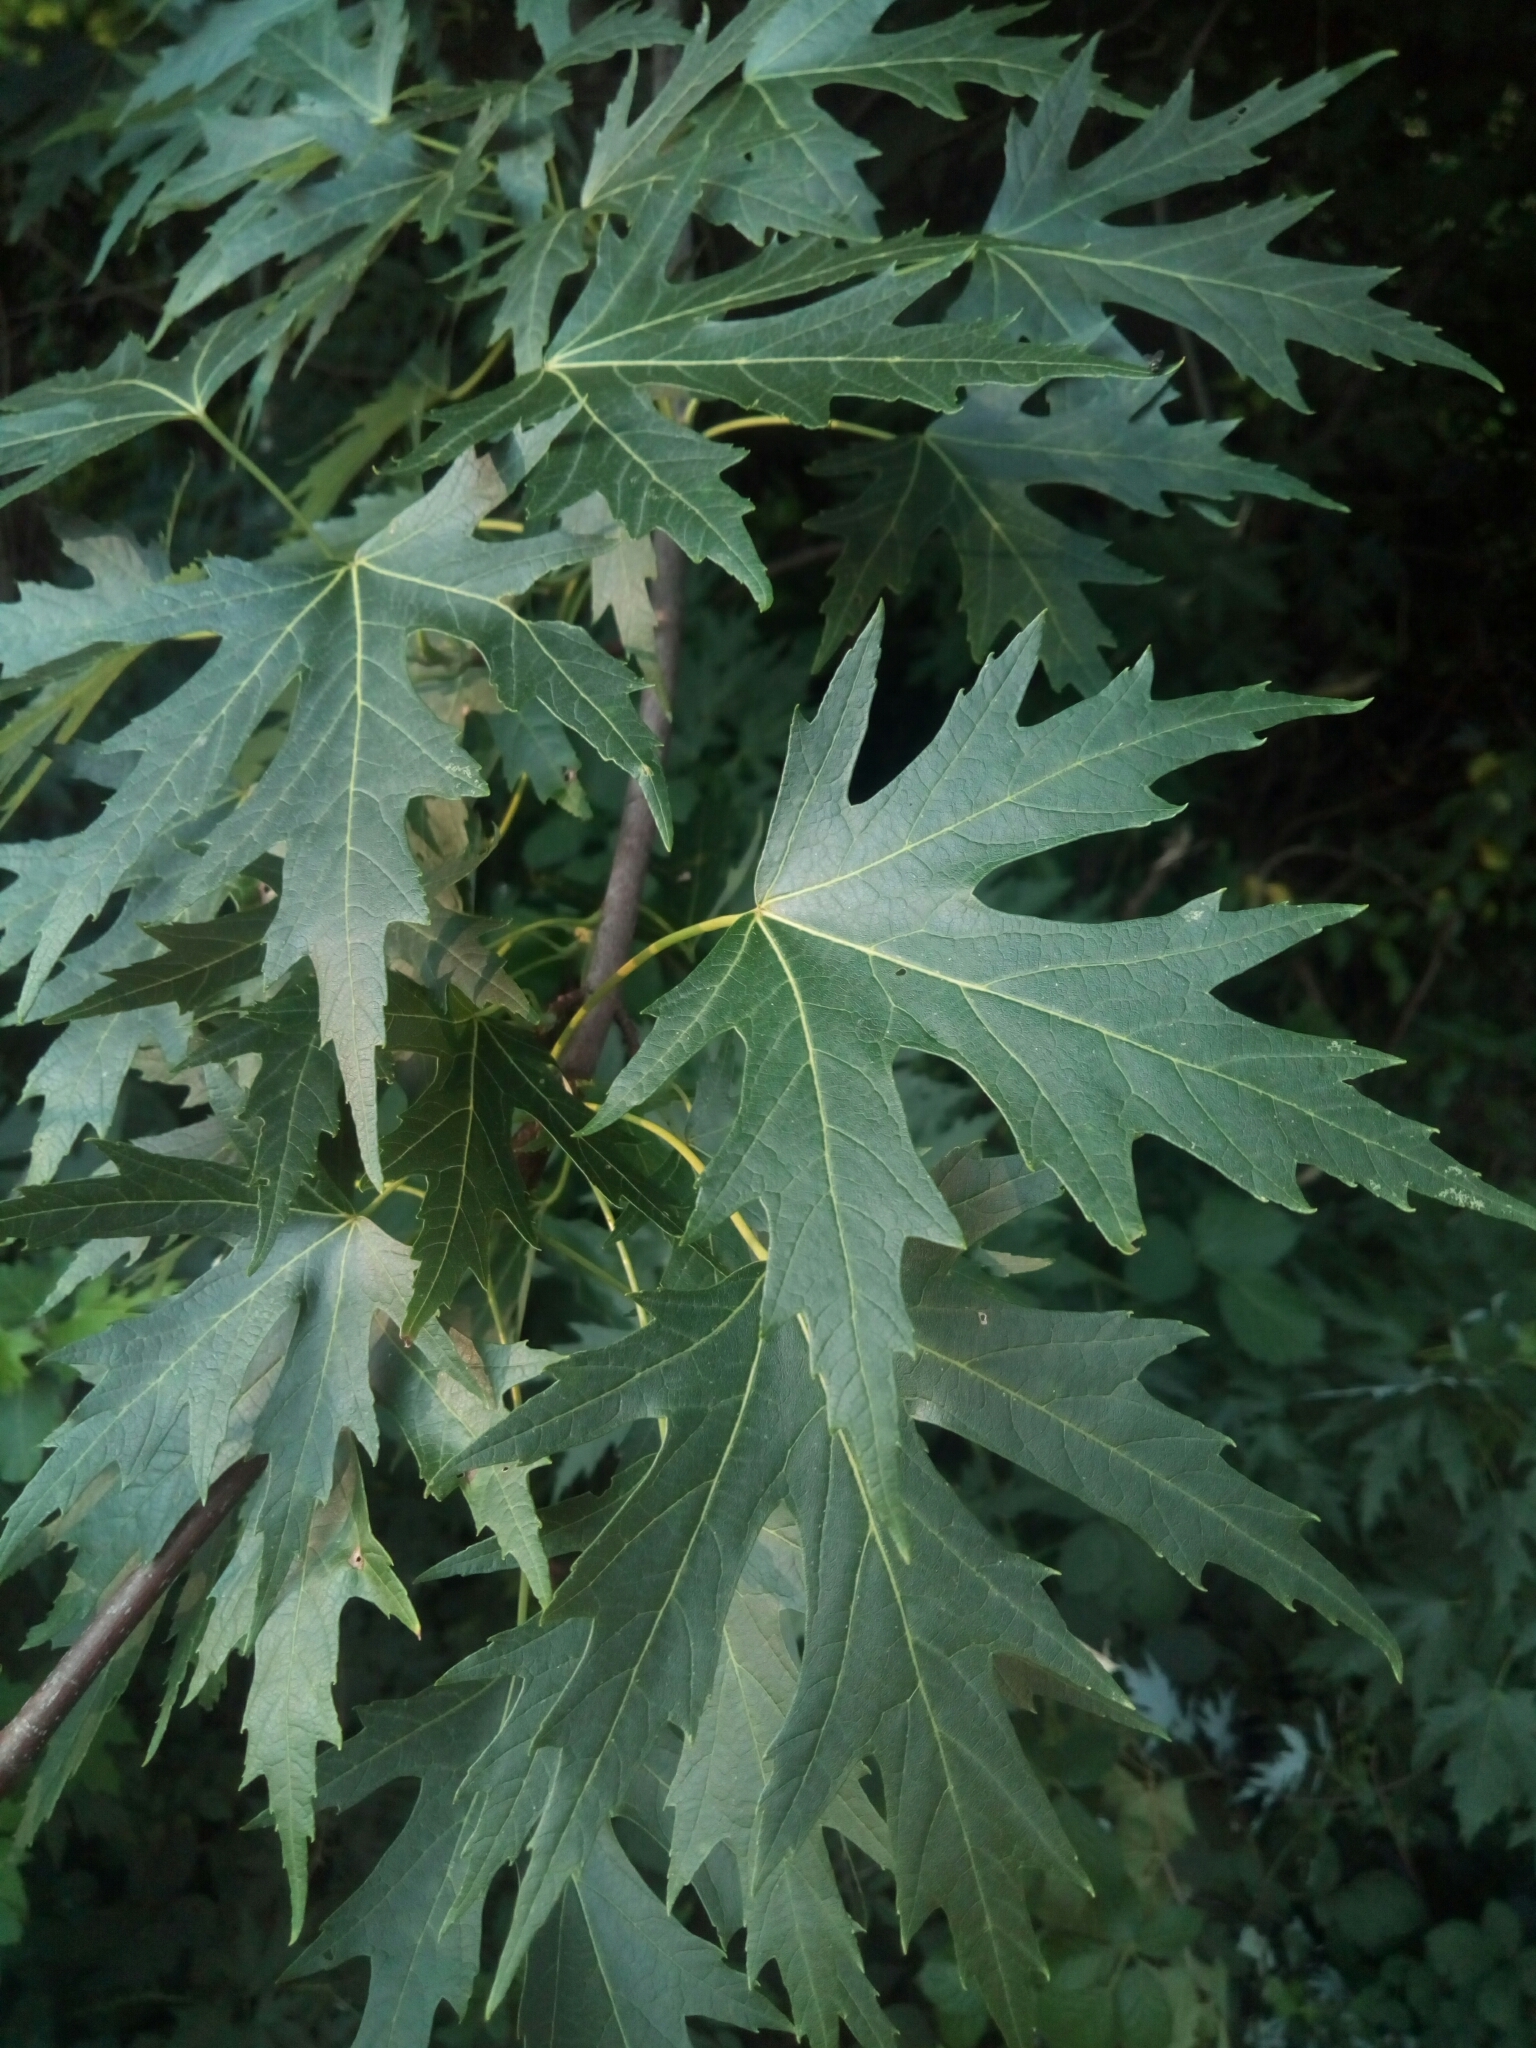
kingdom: Plantae
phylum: Tracheophyta
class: Magnoliopsida
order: Sapindales
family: Sapindaceae
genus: Acer
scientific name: Acer saccharinum
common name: Silver maple
